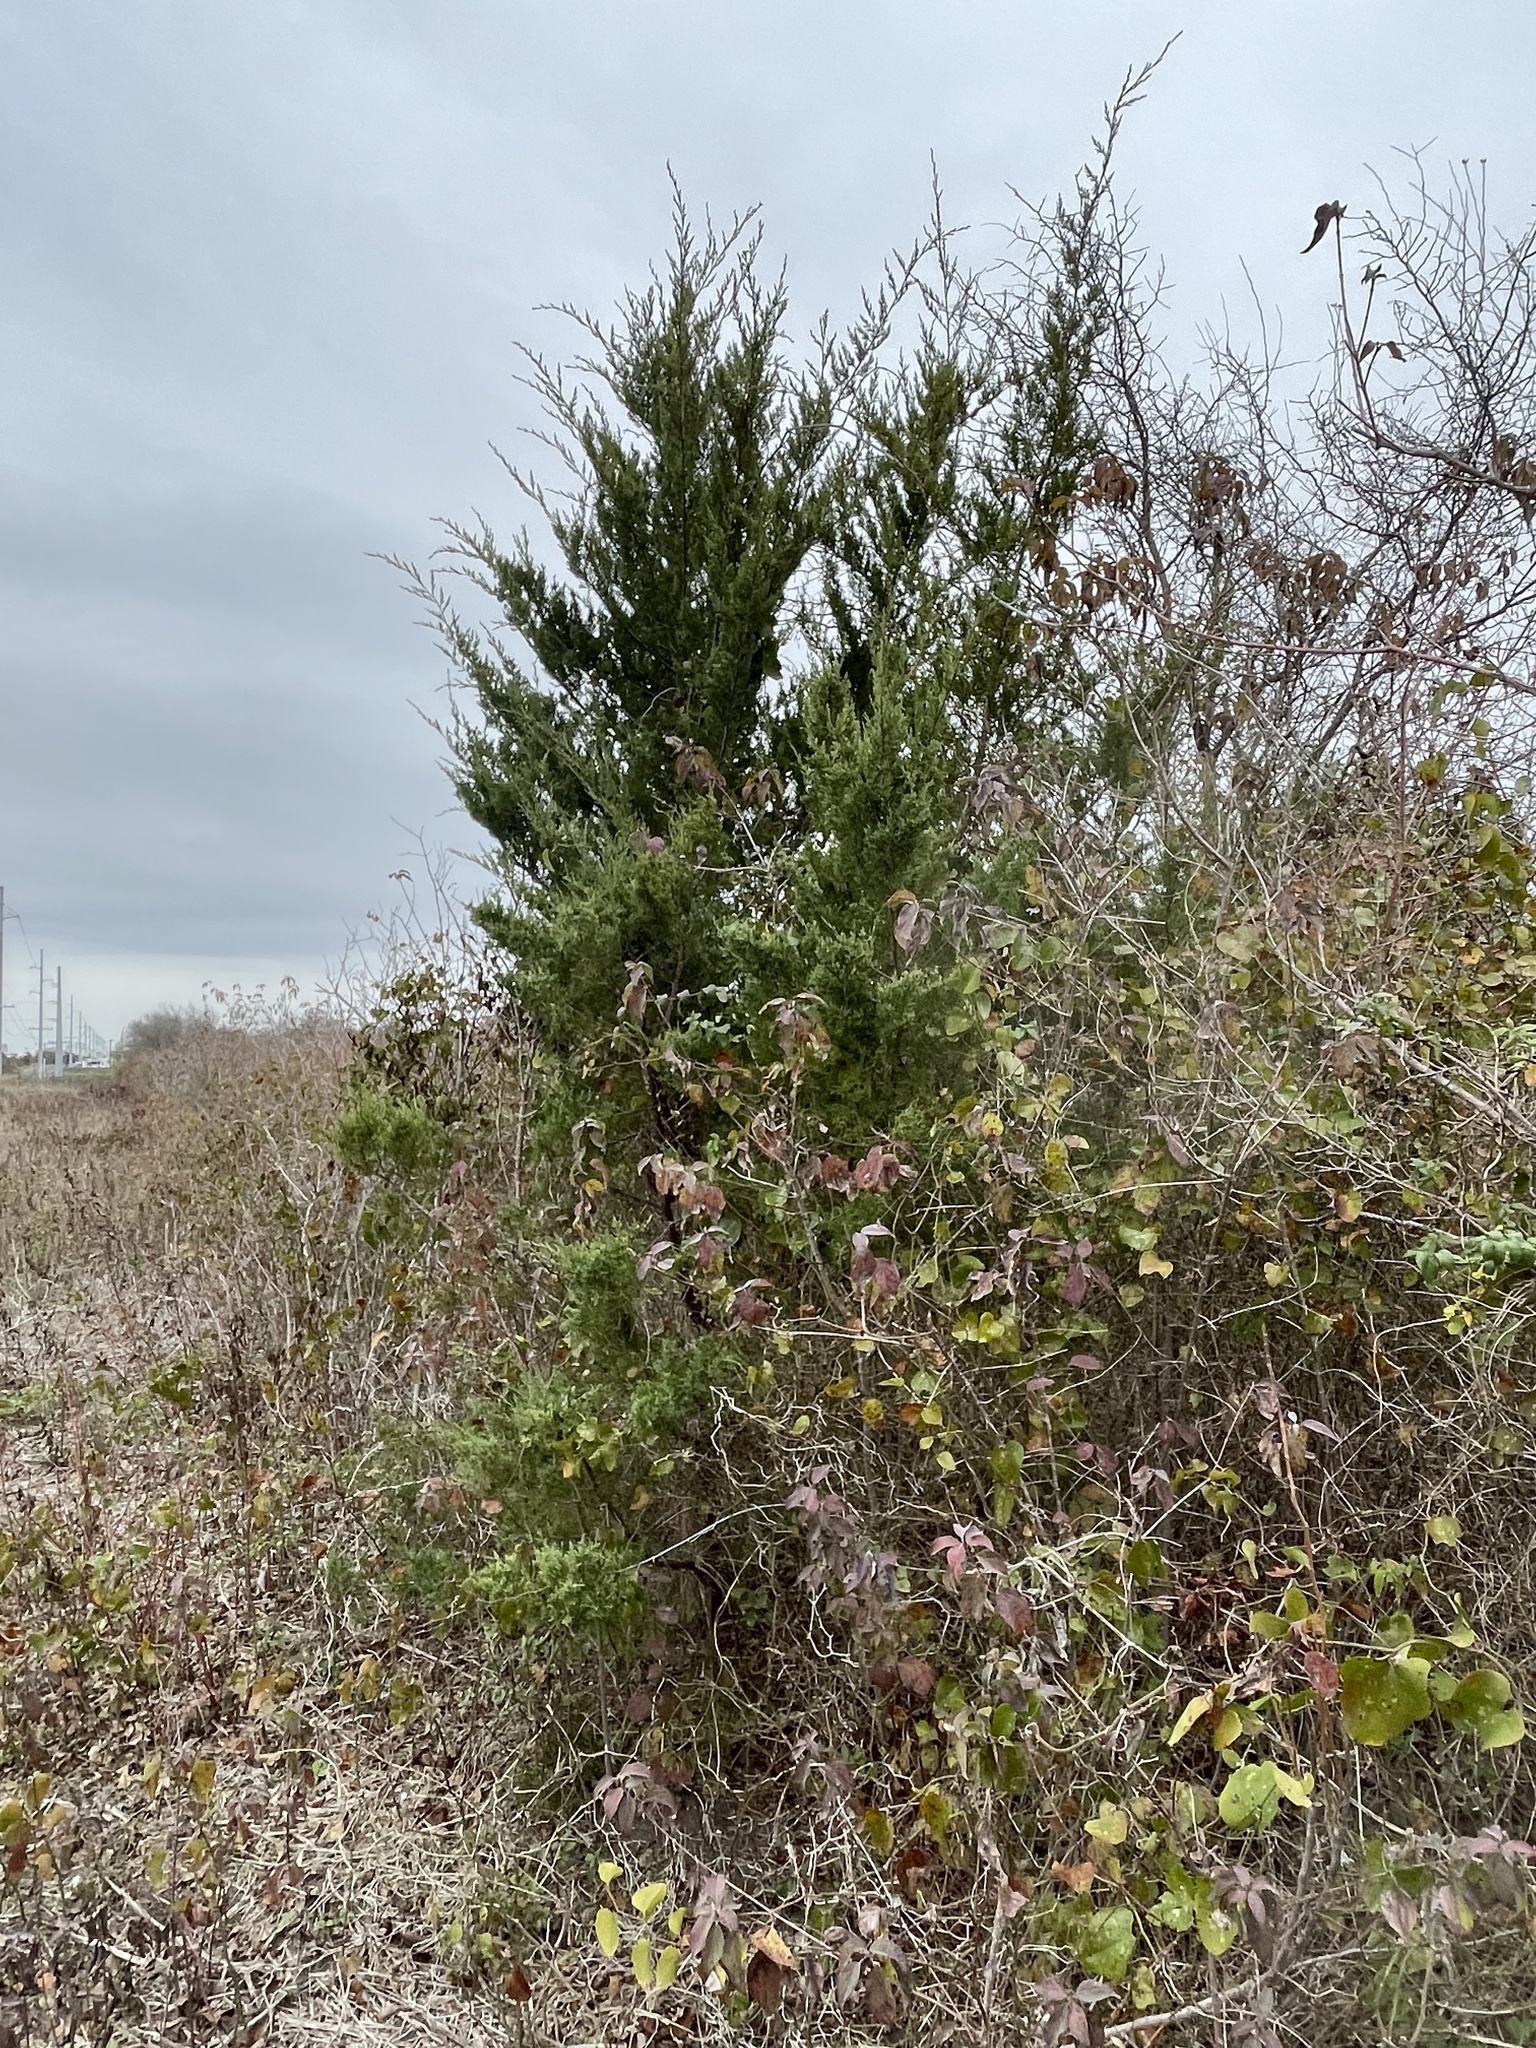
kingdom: Plantae
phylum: Tracheophyta
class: Pinopsida
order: Pinales
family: Cupressaceae
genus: Juniperus
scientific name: Juniperus virginiana
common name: Red juniper
